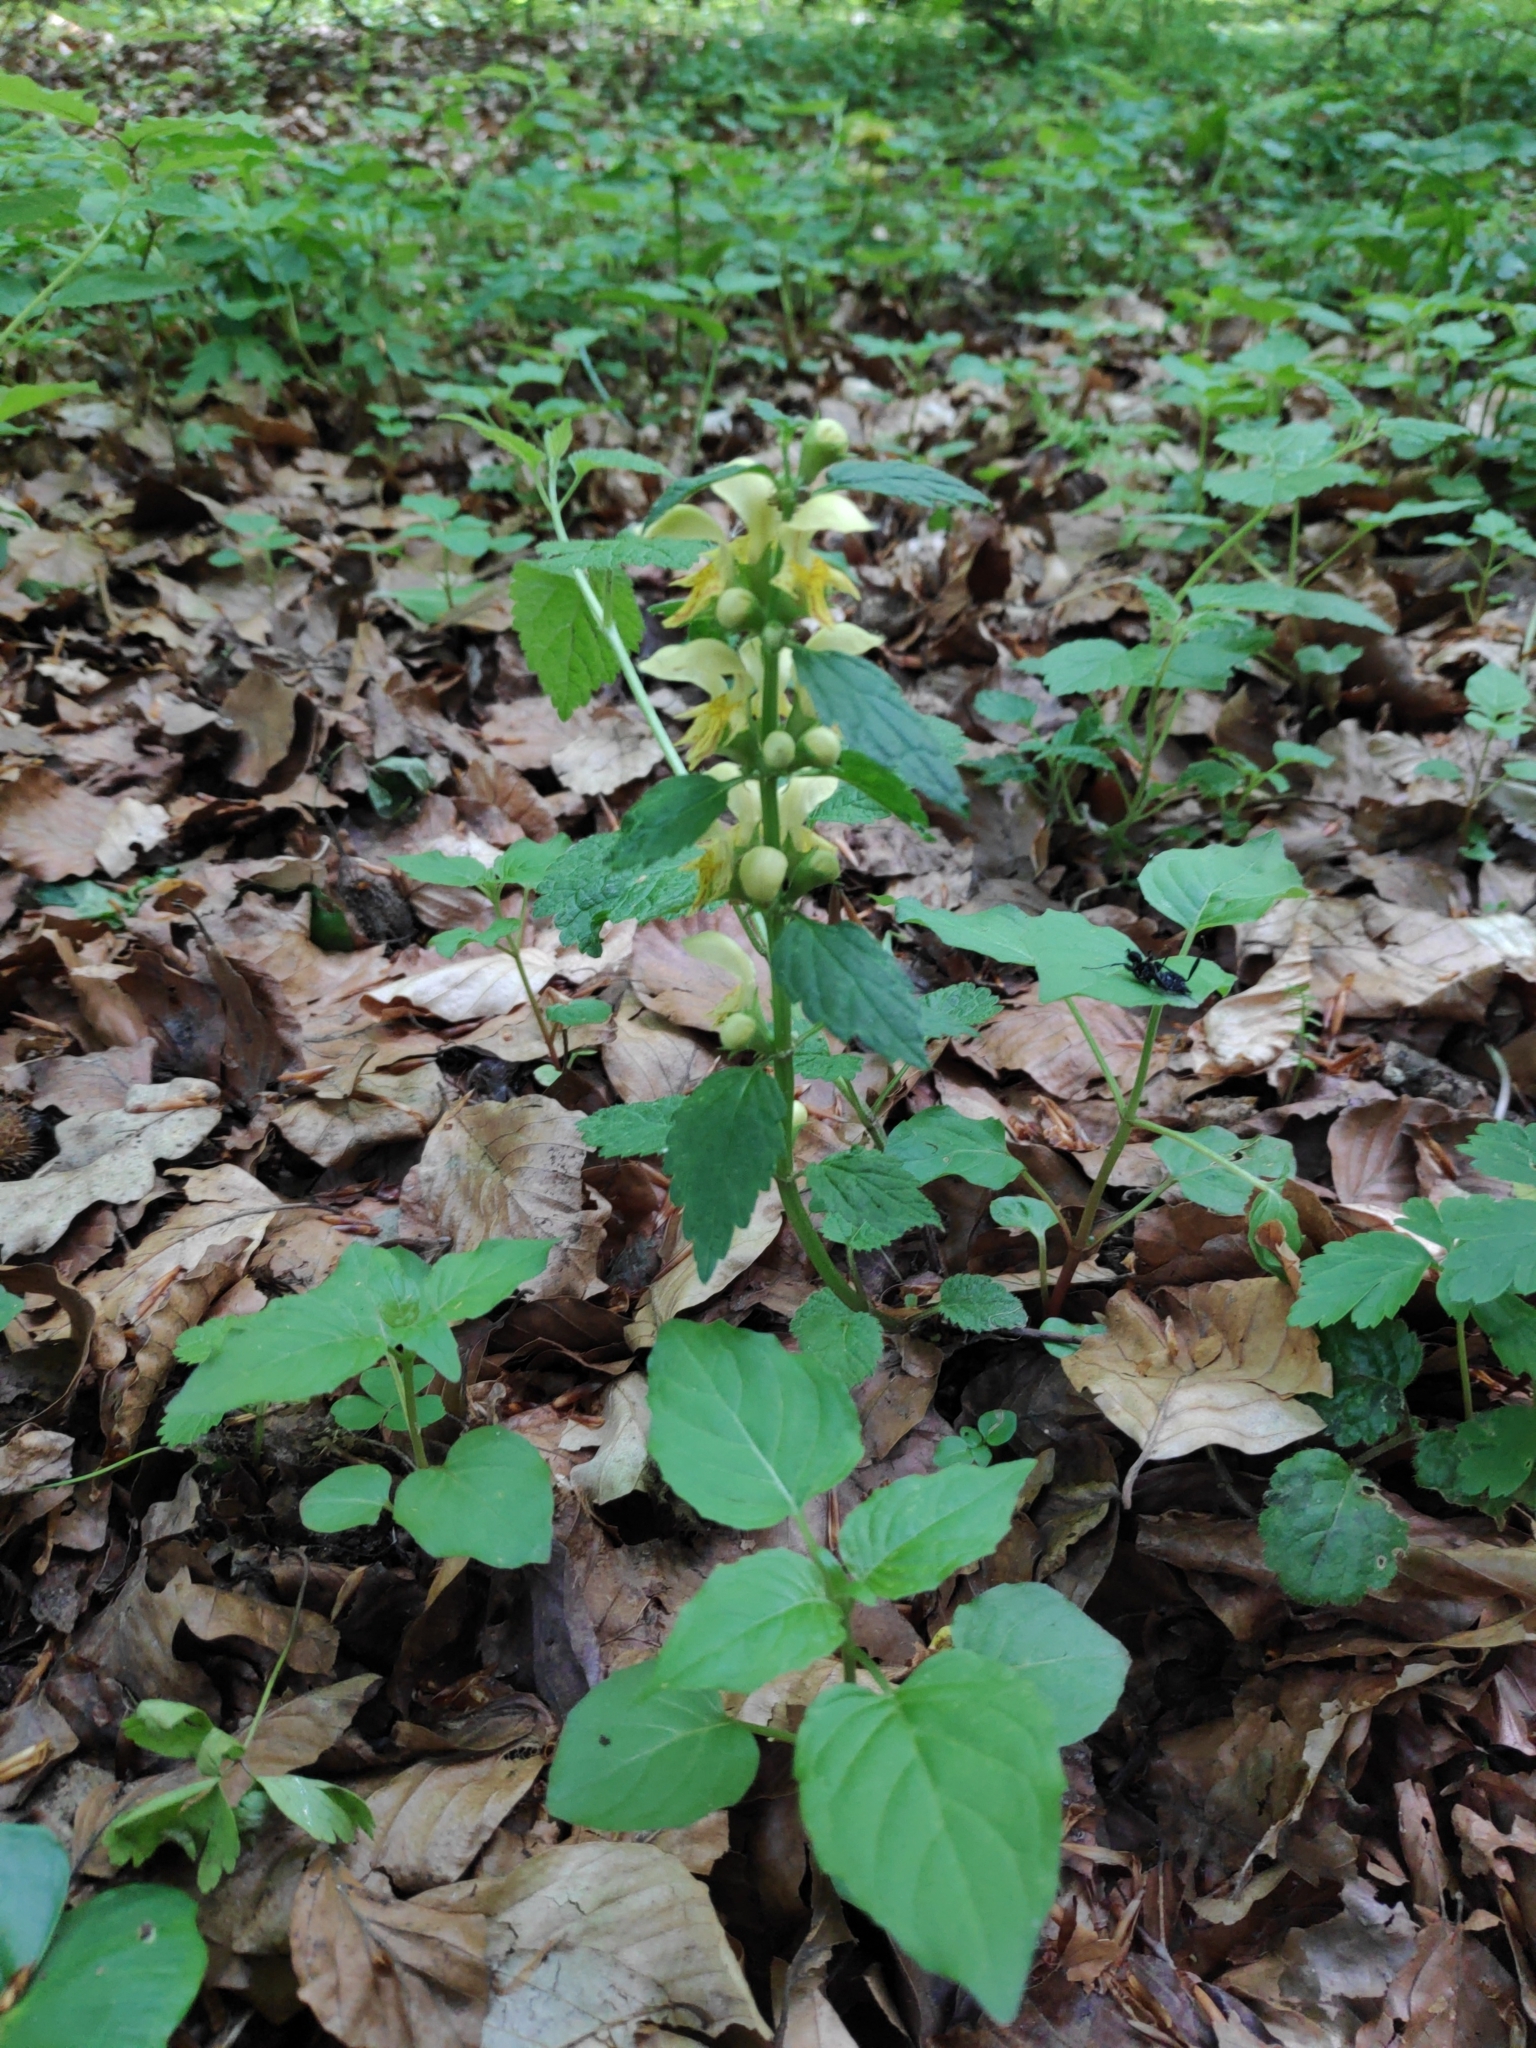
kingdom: Plantae
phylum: Tracheophyta
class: Magnoliopsida
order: Lamiales
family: Lamiaceae
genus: Lamium
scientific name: Lamium galeobdolon
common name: Yellow archangel
